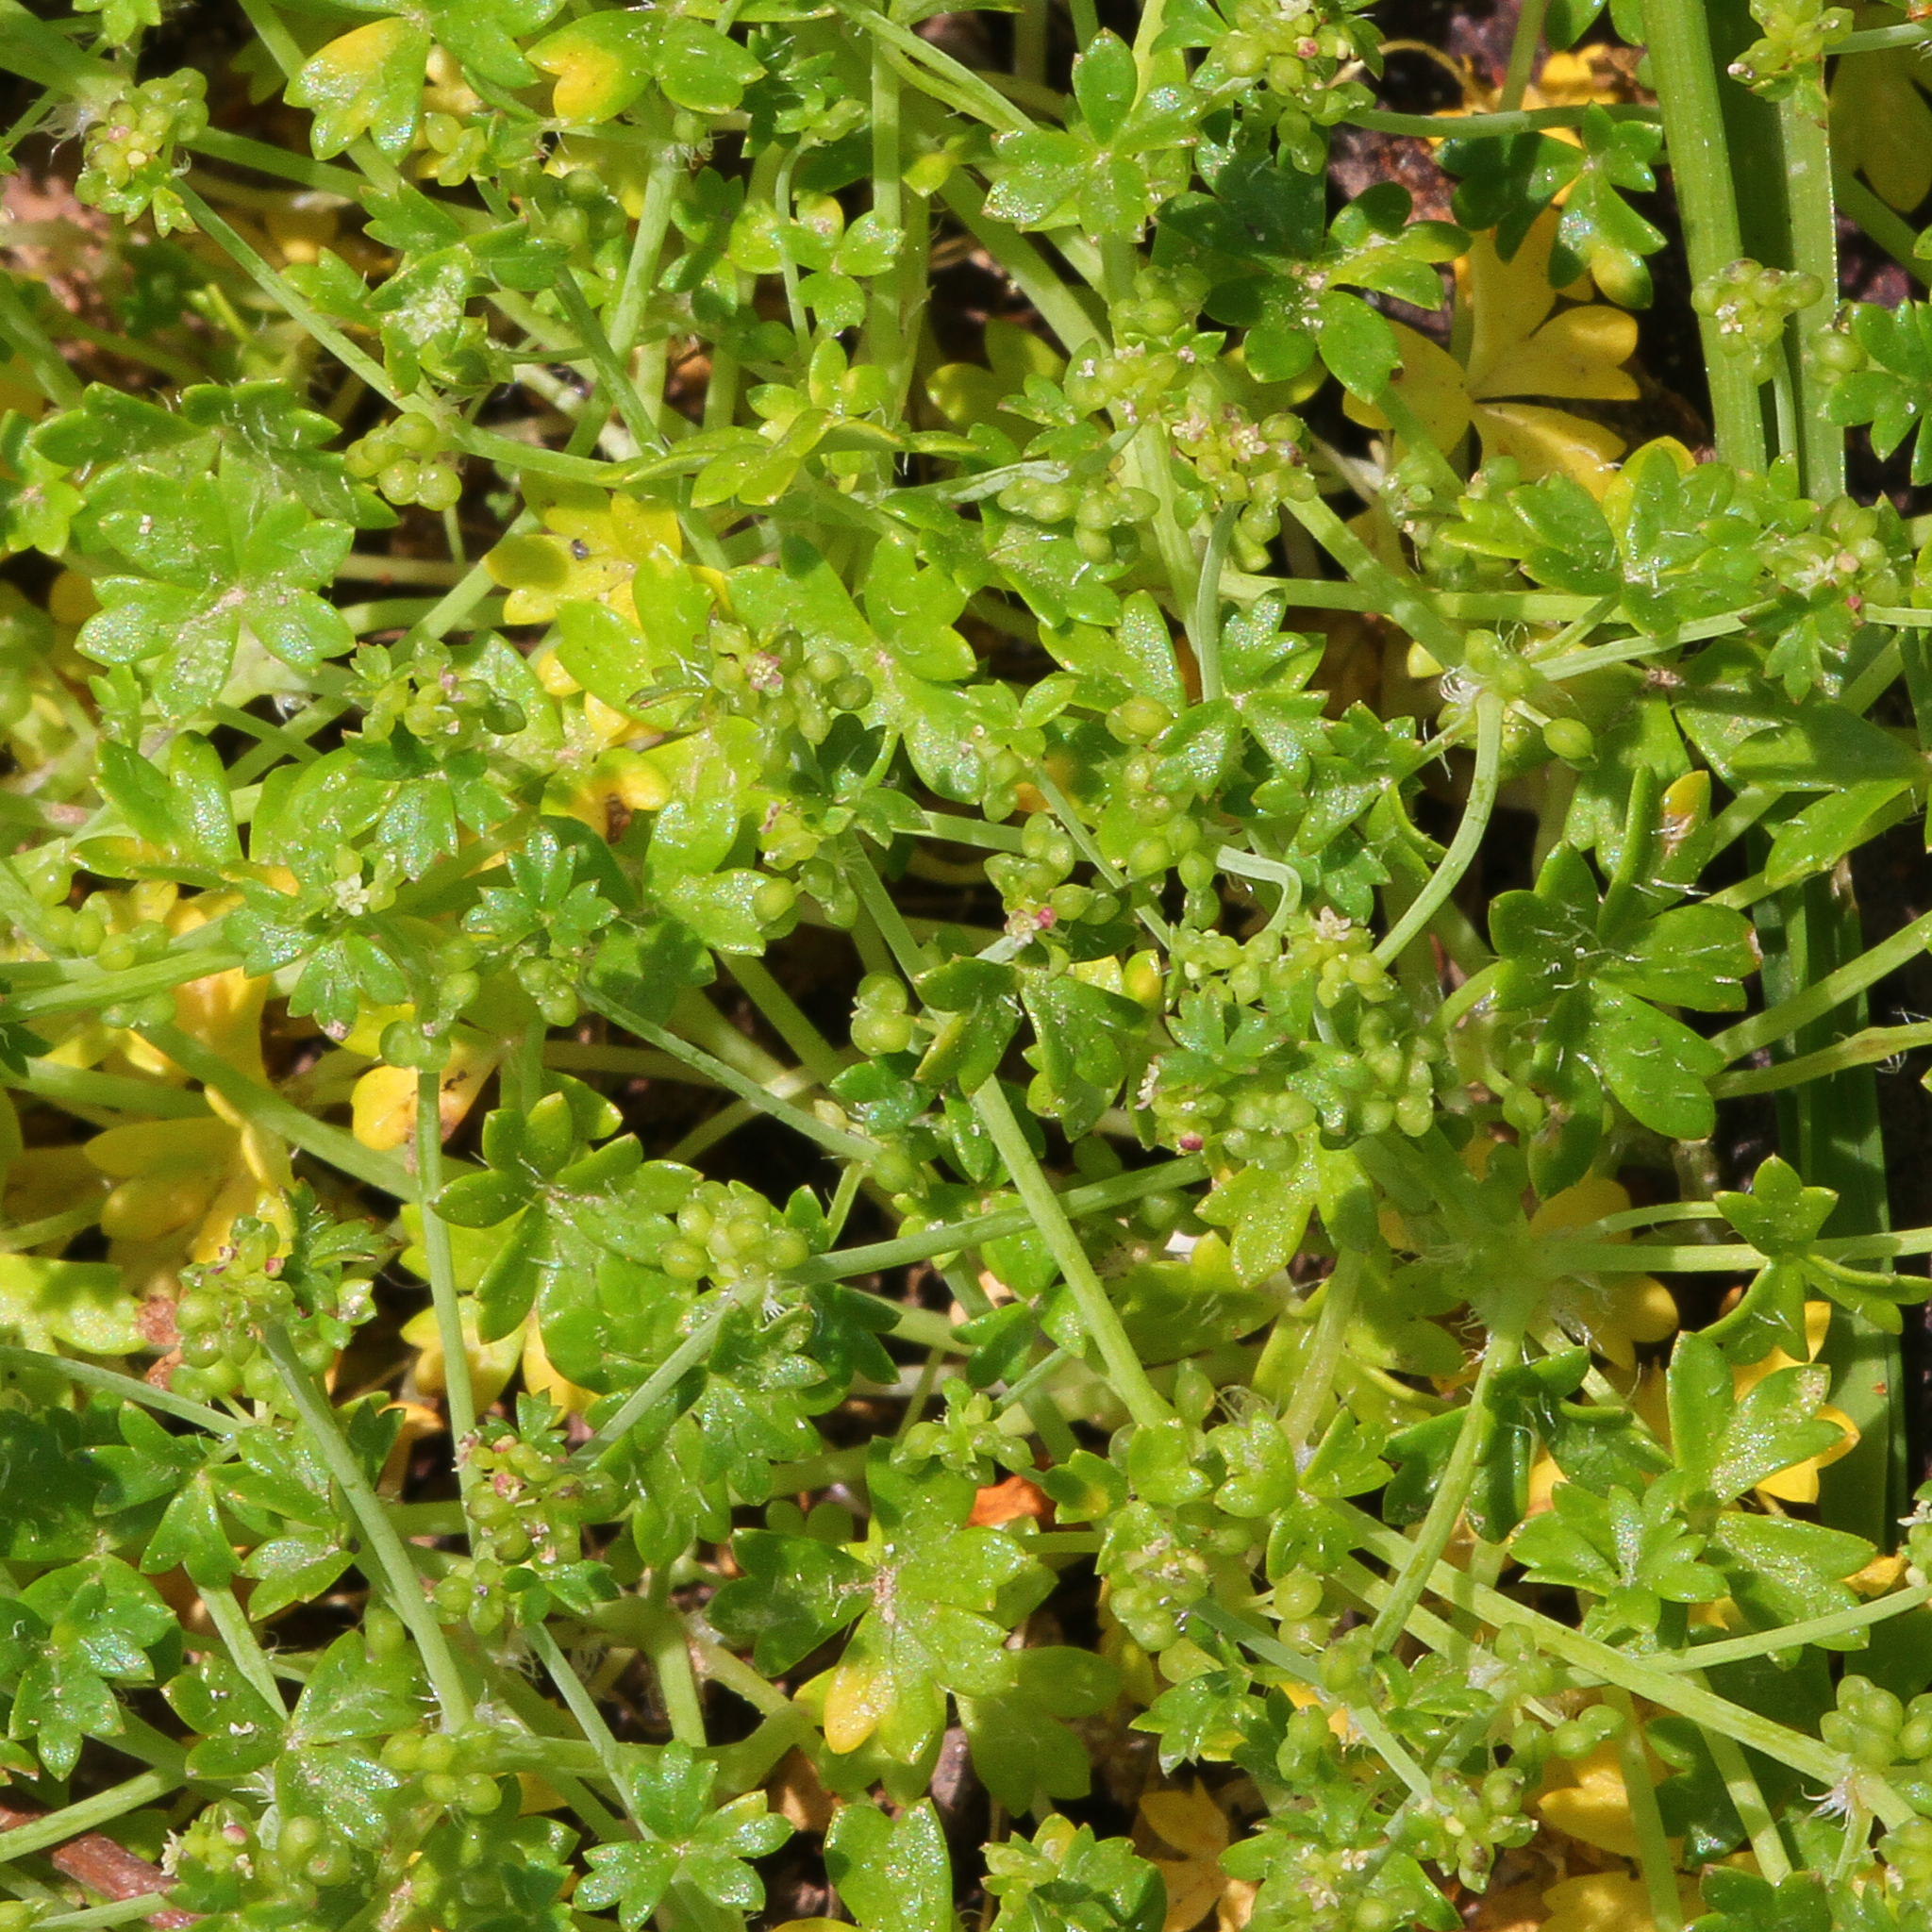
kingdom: Plantae
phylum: Tracheophyta
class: Magnoliopsida
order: Apiales
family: Araliaceae
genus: Hydrocotyle
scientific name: Hydrocotyle foveolata
